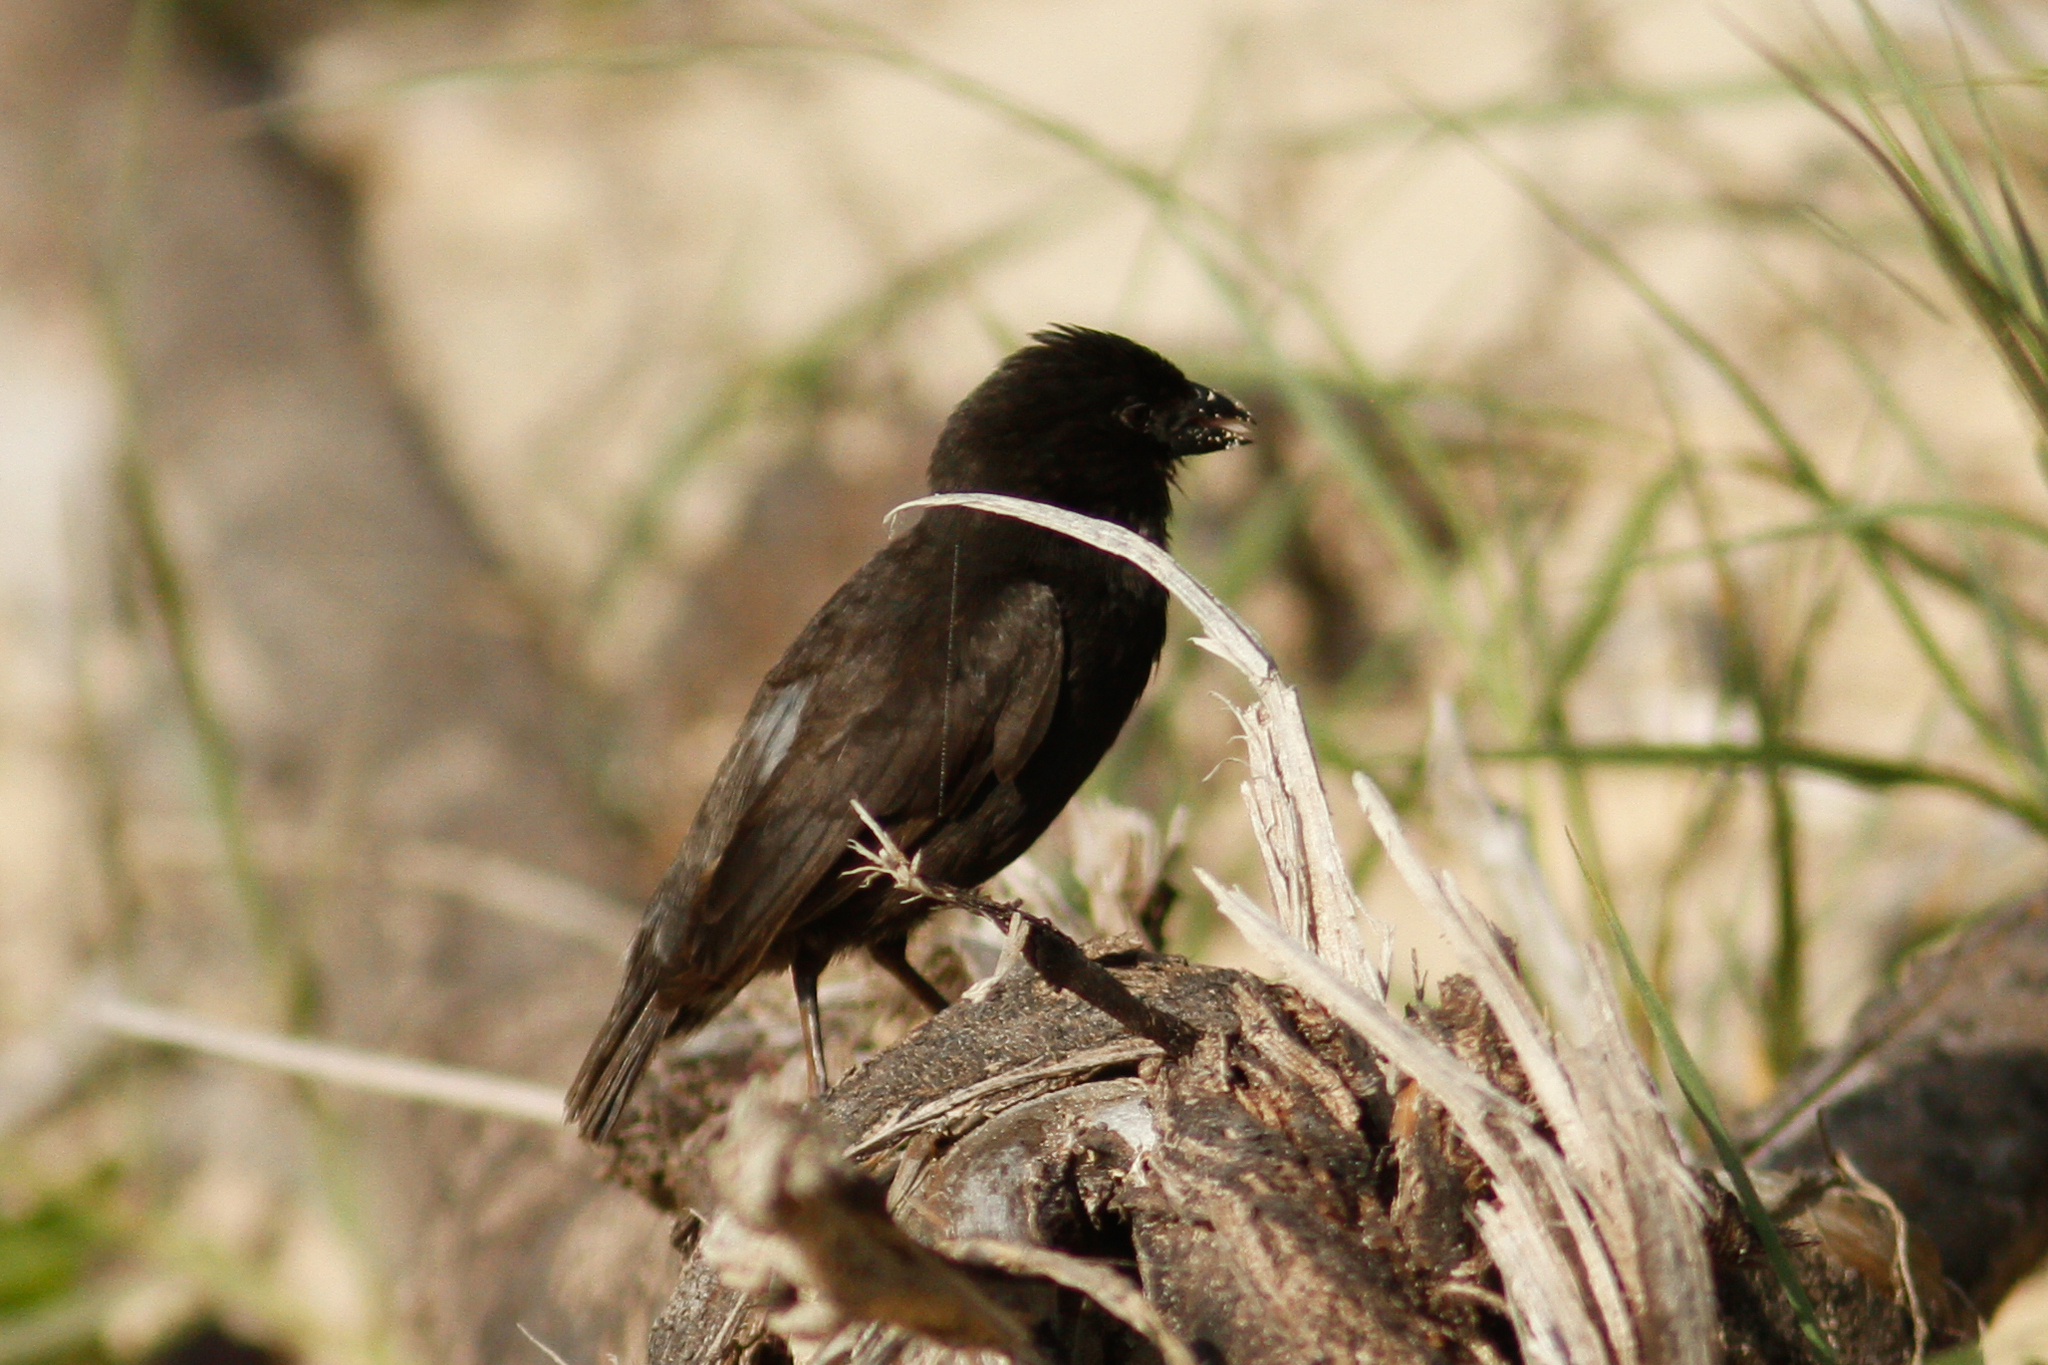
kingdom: Animalia
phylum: Chordata
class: Aves
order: Passeriformes
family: Thraupidae
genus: Geospiza
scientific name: Geospiza fuliginosa
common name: Small ground finch
